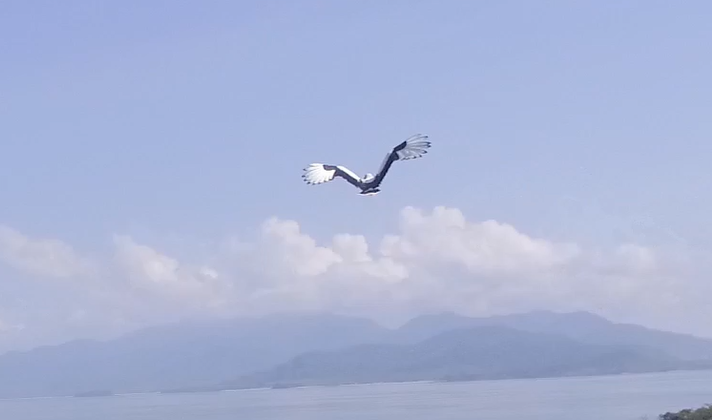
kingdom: Animalia
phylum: Chordata
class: Aves
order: Accipitriformes
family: Accipitridae
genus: Gypohierax
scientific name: Gypohierax angolensis
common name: Palm-nut vulture
